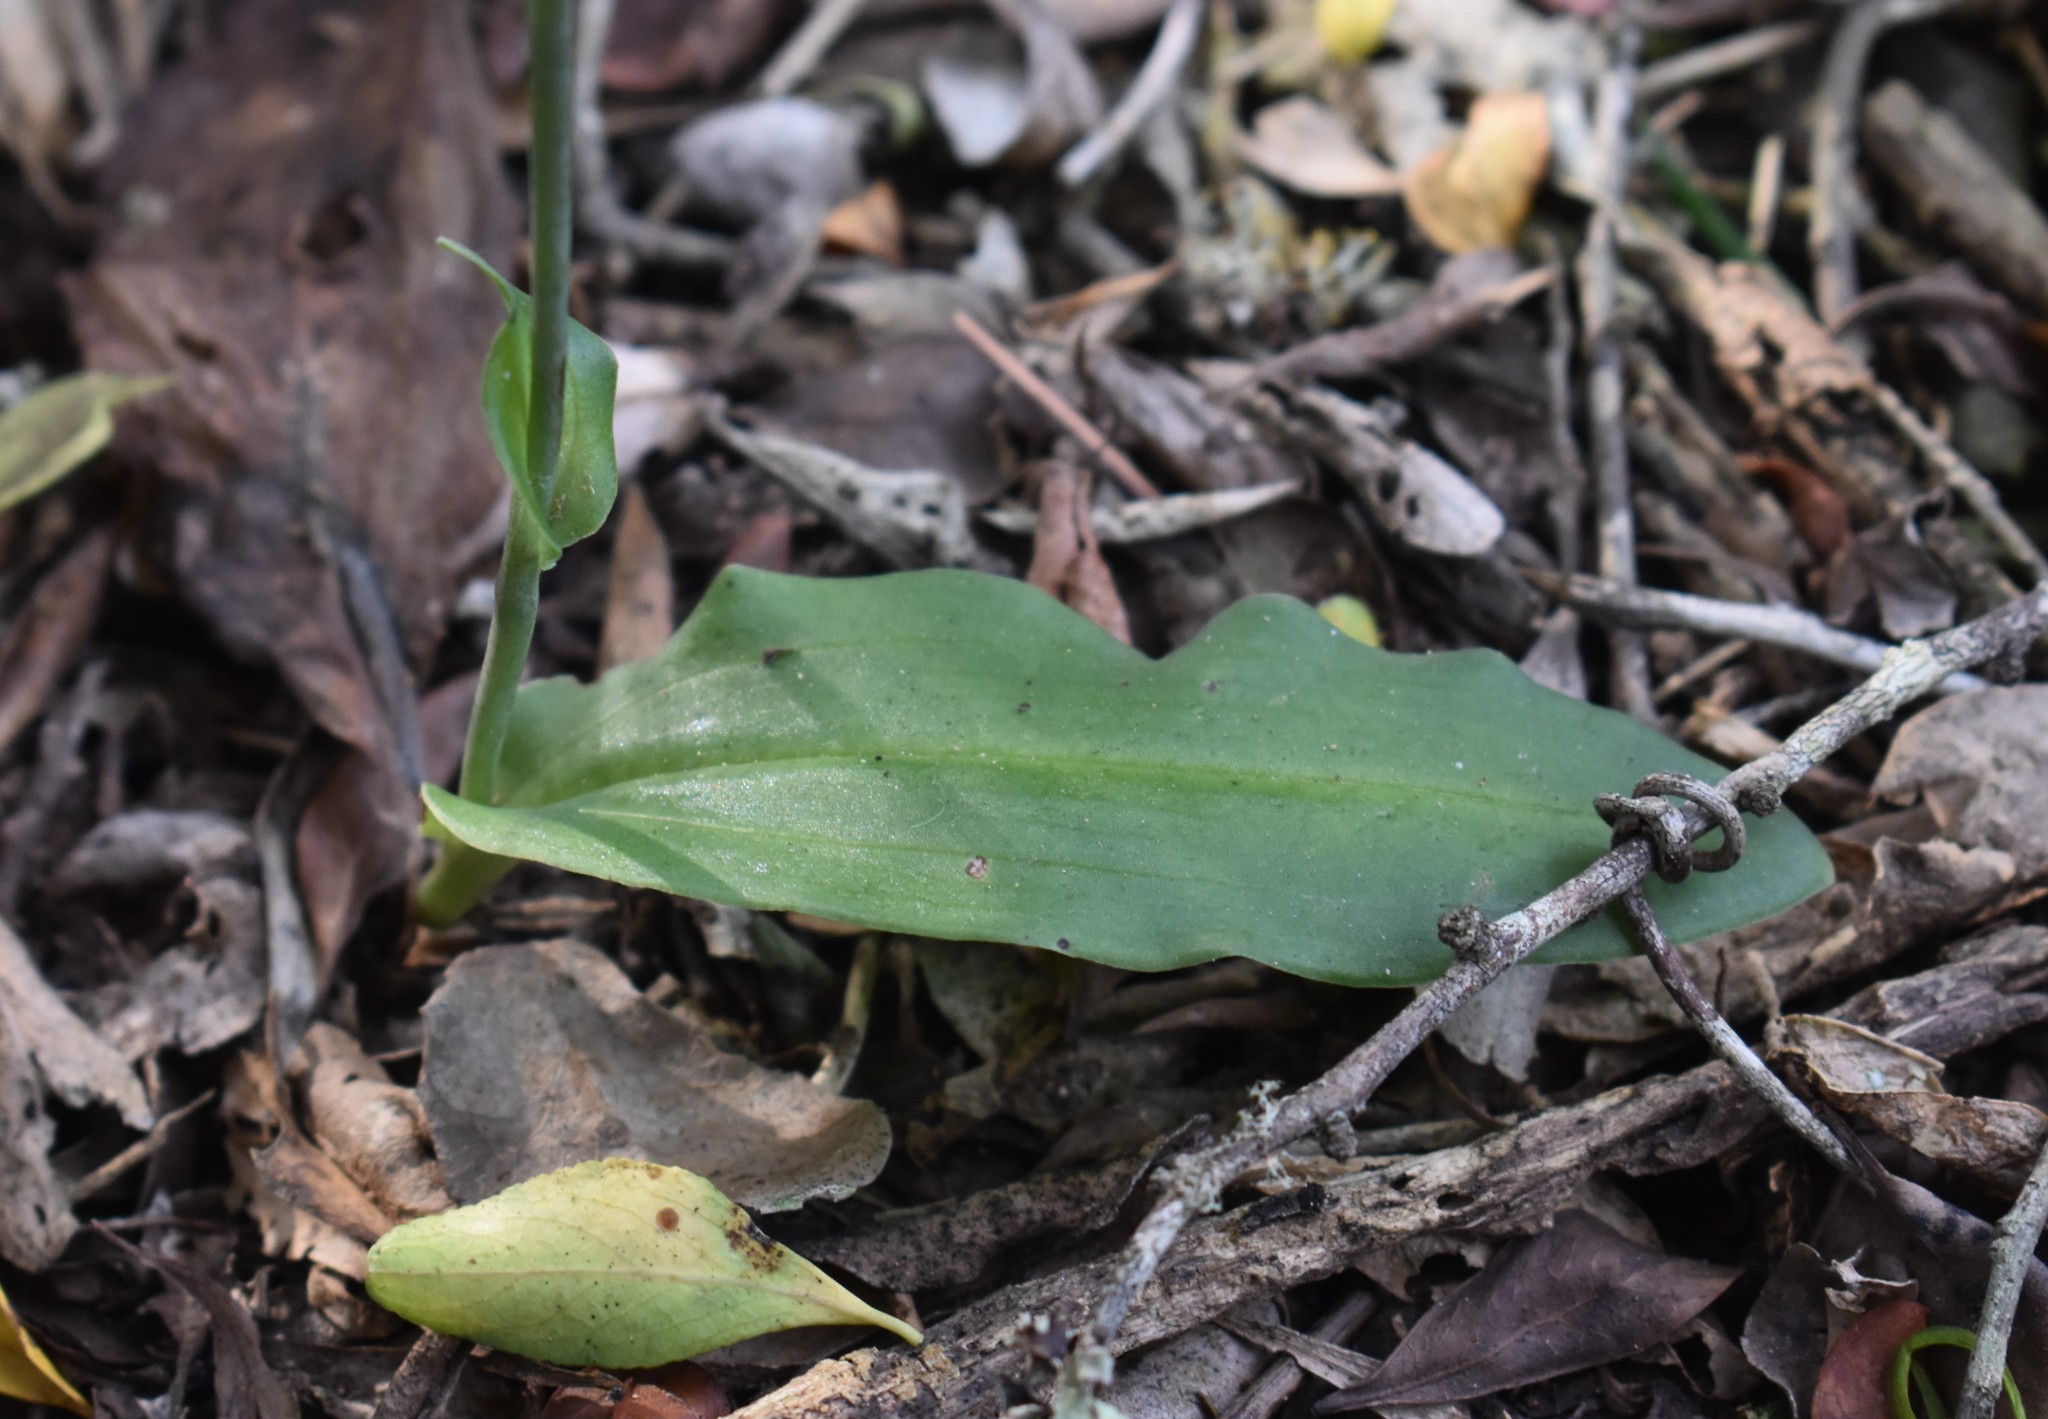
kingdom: Plantae
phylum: Tracheophyta
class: Liliopsida
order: Asparagales
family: Orchidaceae
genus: Habenaria
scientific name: Habenaria arenaria
